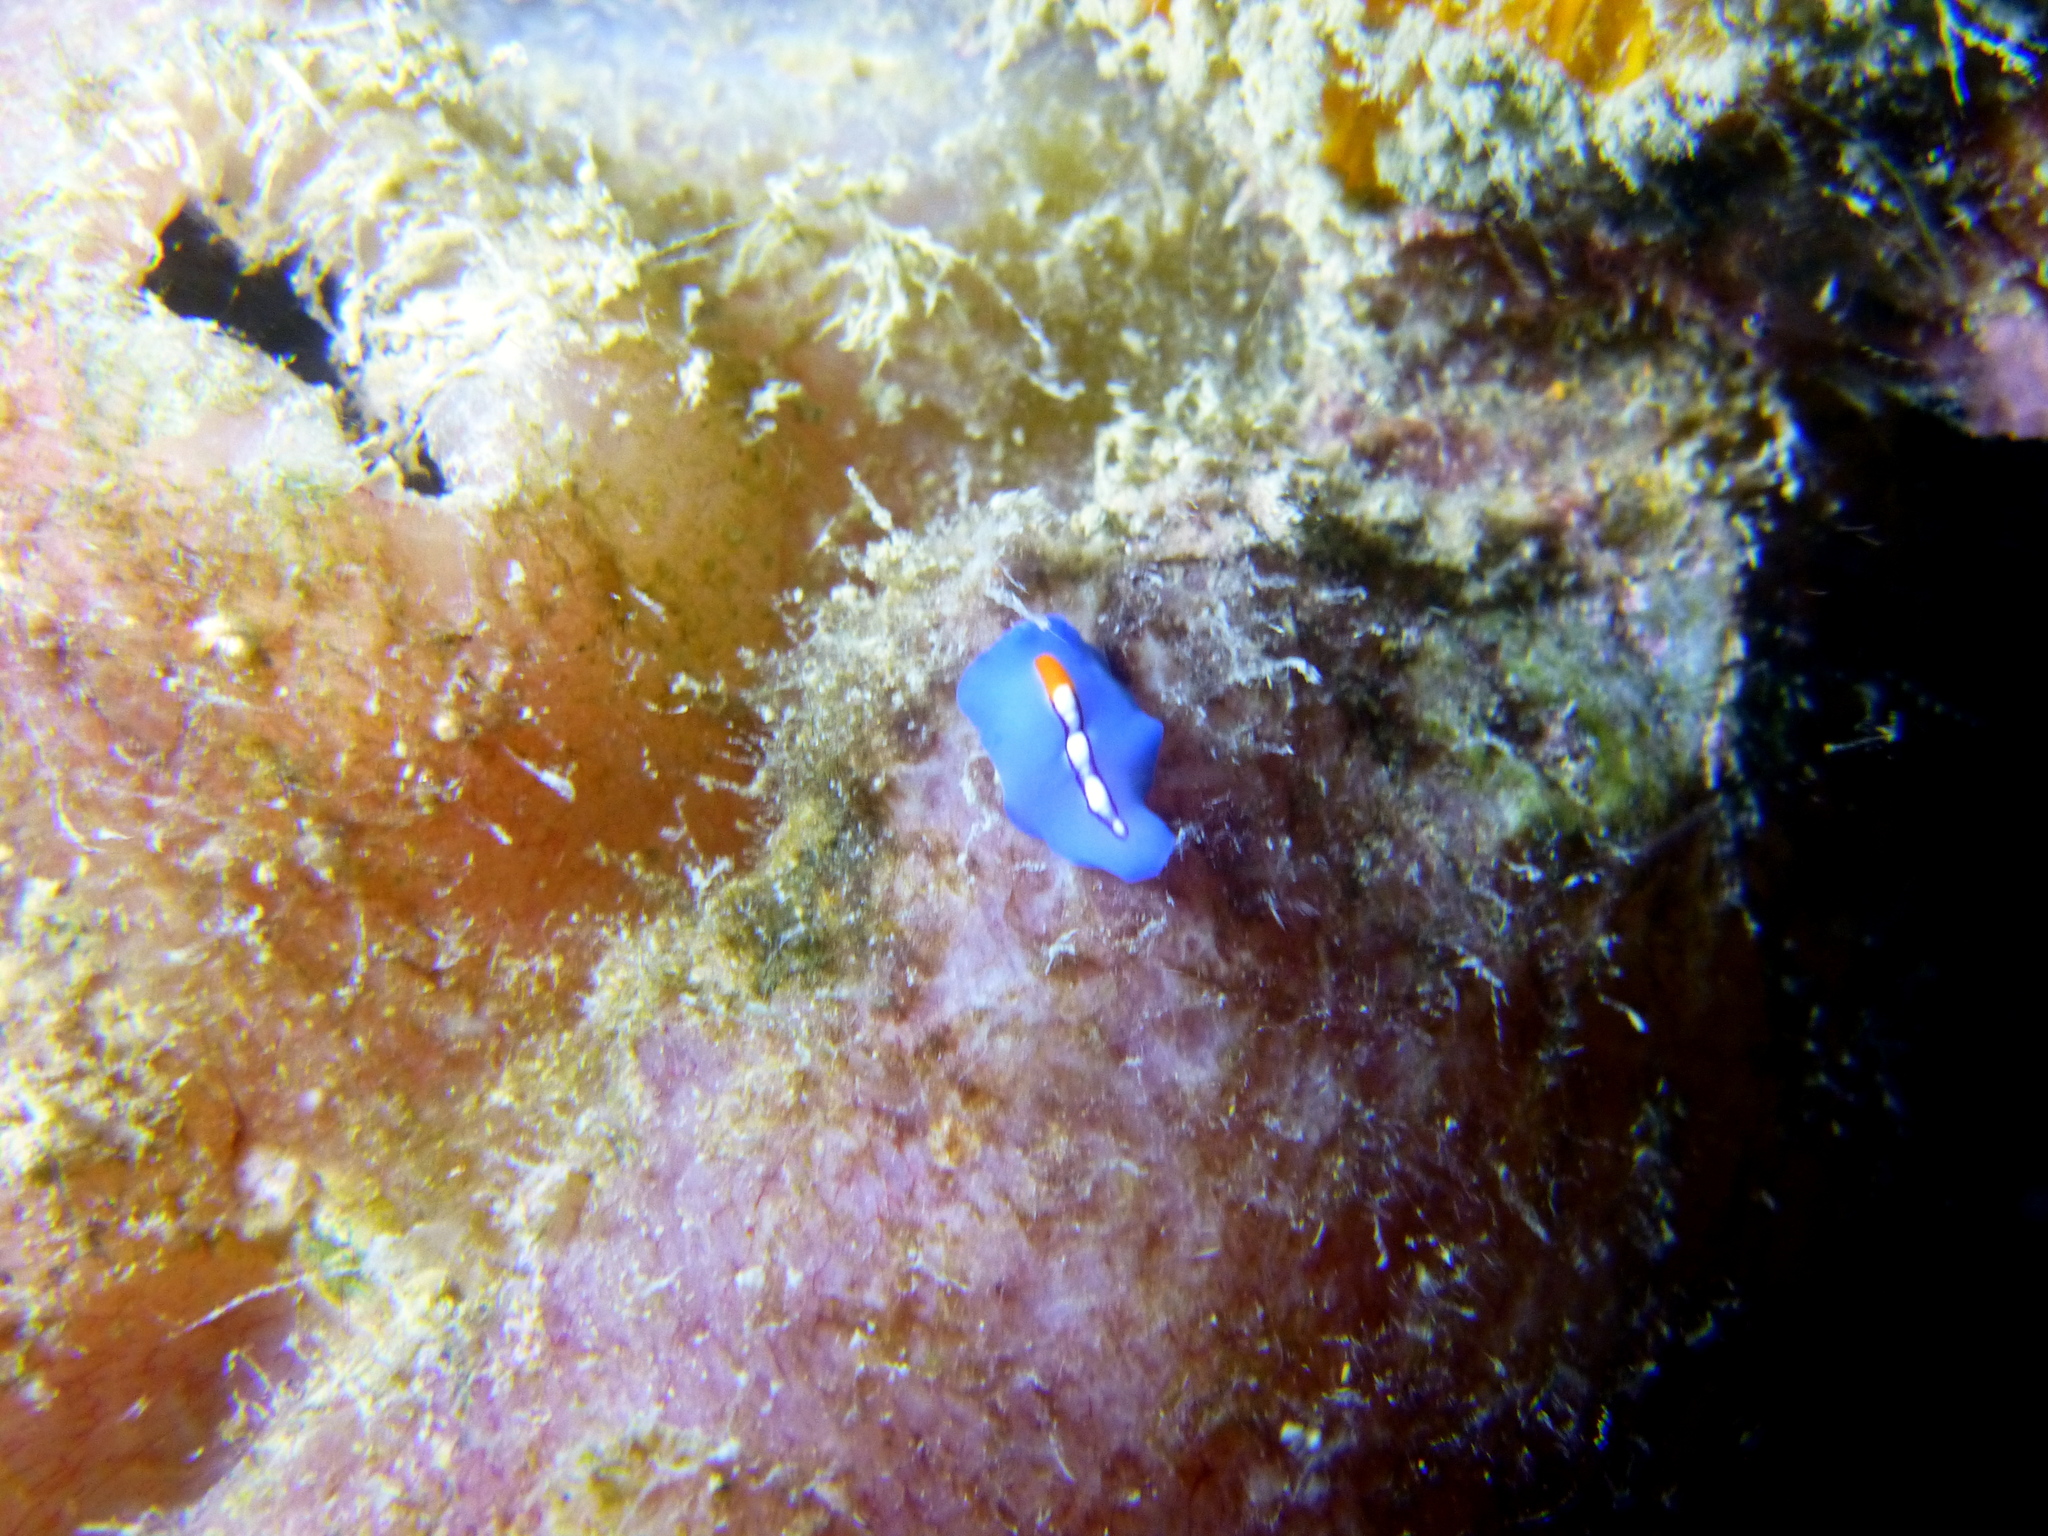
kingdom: Animalia
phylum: Platyhelminthes
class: Turbellaria
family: Pseudocerotidae
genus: Pseudoceros
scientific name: Pseudoceros liparus
